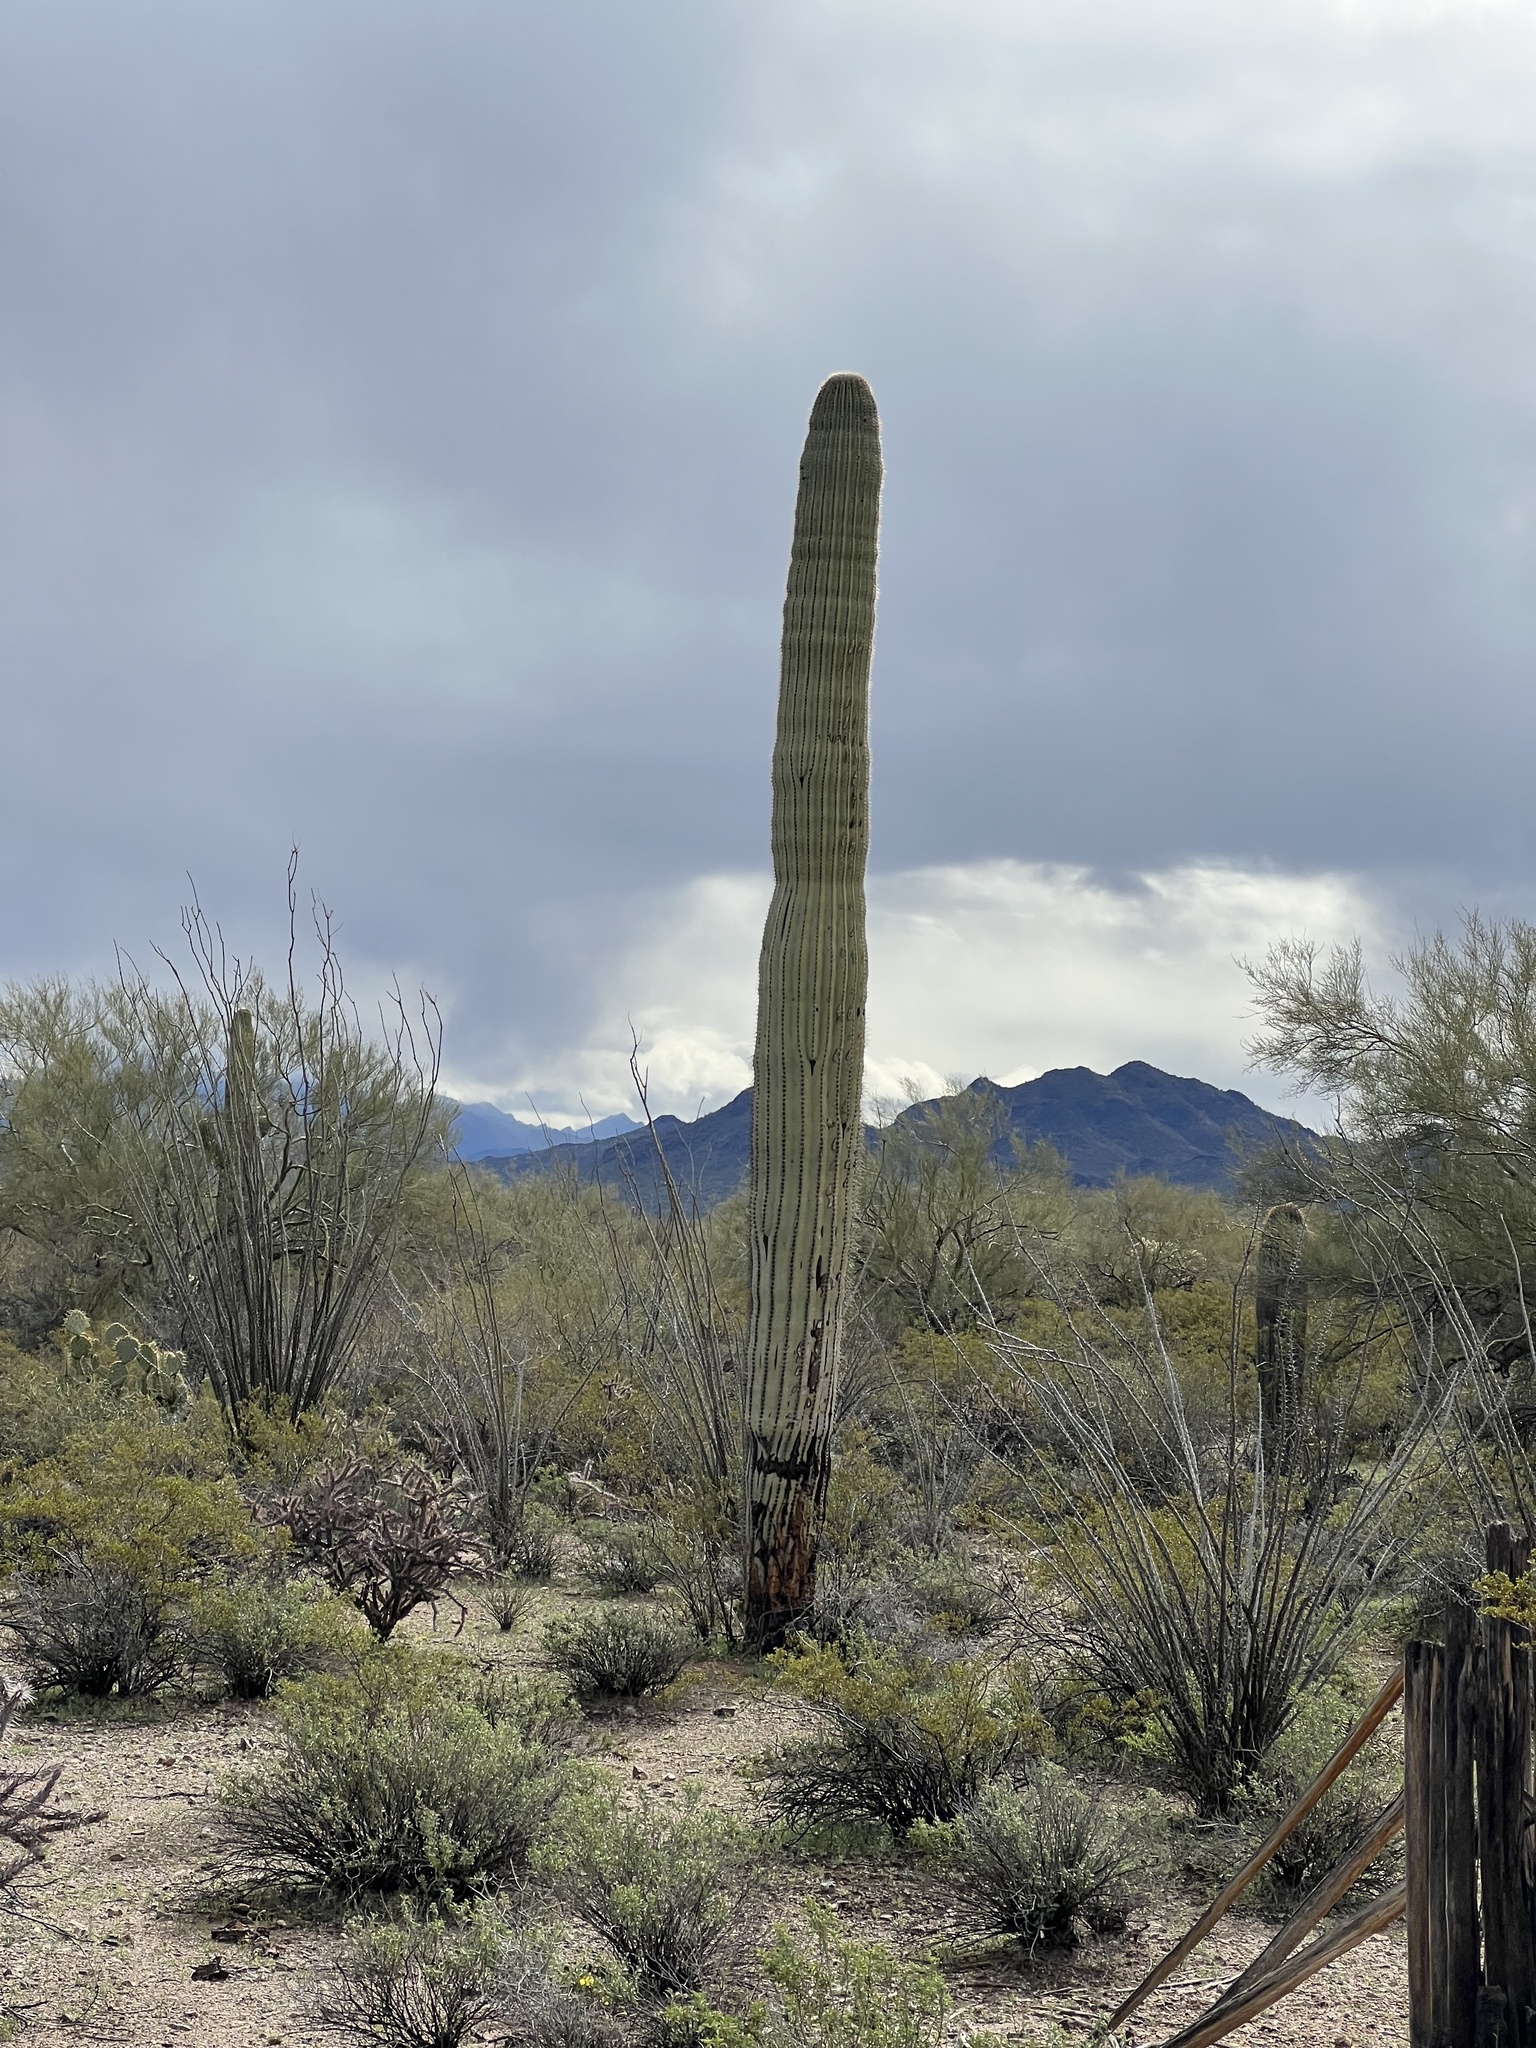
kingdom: Plantae
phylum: Tracheophyta
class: Magnoliopsida
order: Caryophyllales
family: Cactaceae
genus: Carnegiea
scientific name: Carnegiea gigantea
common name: Saguaro
